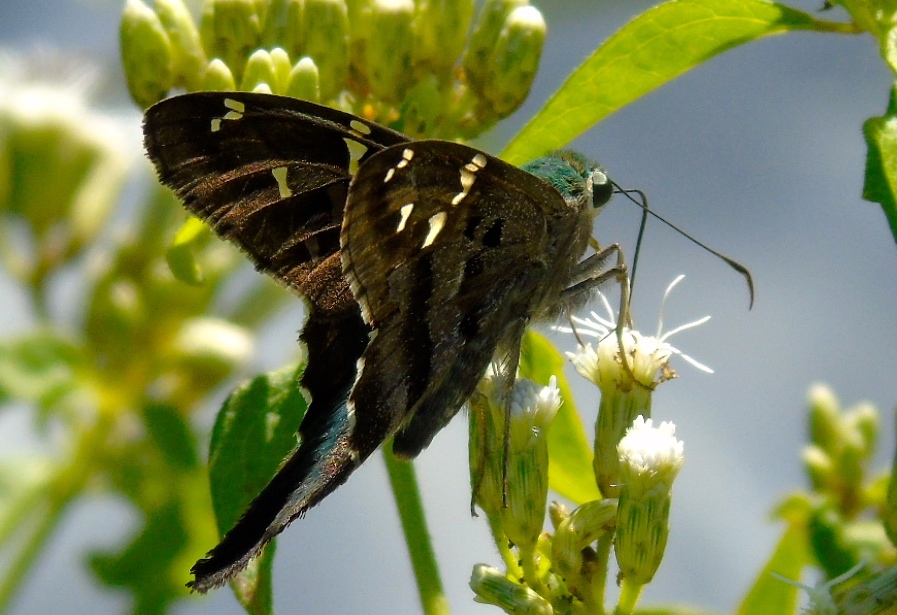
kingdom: Animalia
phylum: Arthropoda
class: Insecta
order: Lepidoptera
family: Hesperiidae
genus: Urbanus
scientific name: Urbanus proteus
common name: Long-tailed skipper
